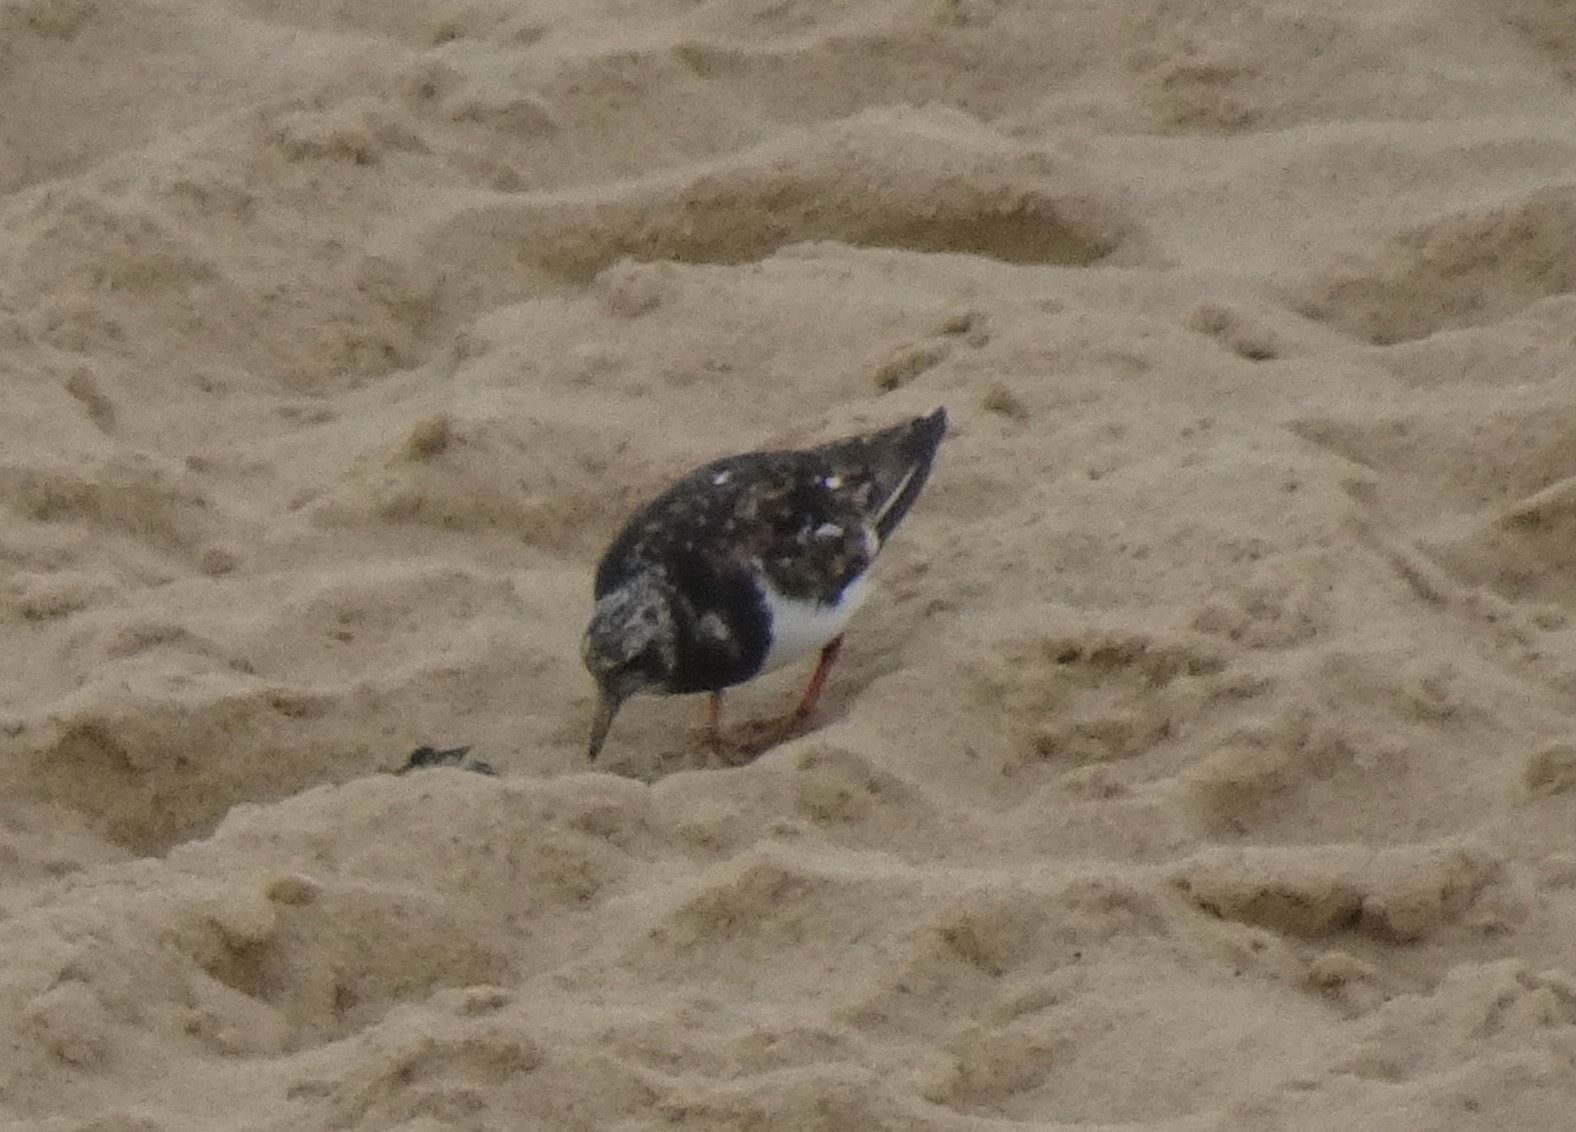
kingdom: Animalia
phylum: Chordata
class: Aves
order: Charadriiformes
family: Scolopacidae
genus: Arenaria
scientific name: Arenaria interpres
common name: Ruddy turnstone
